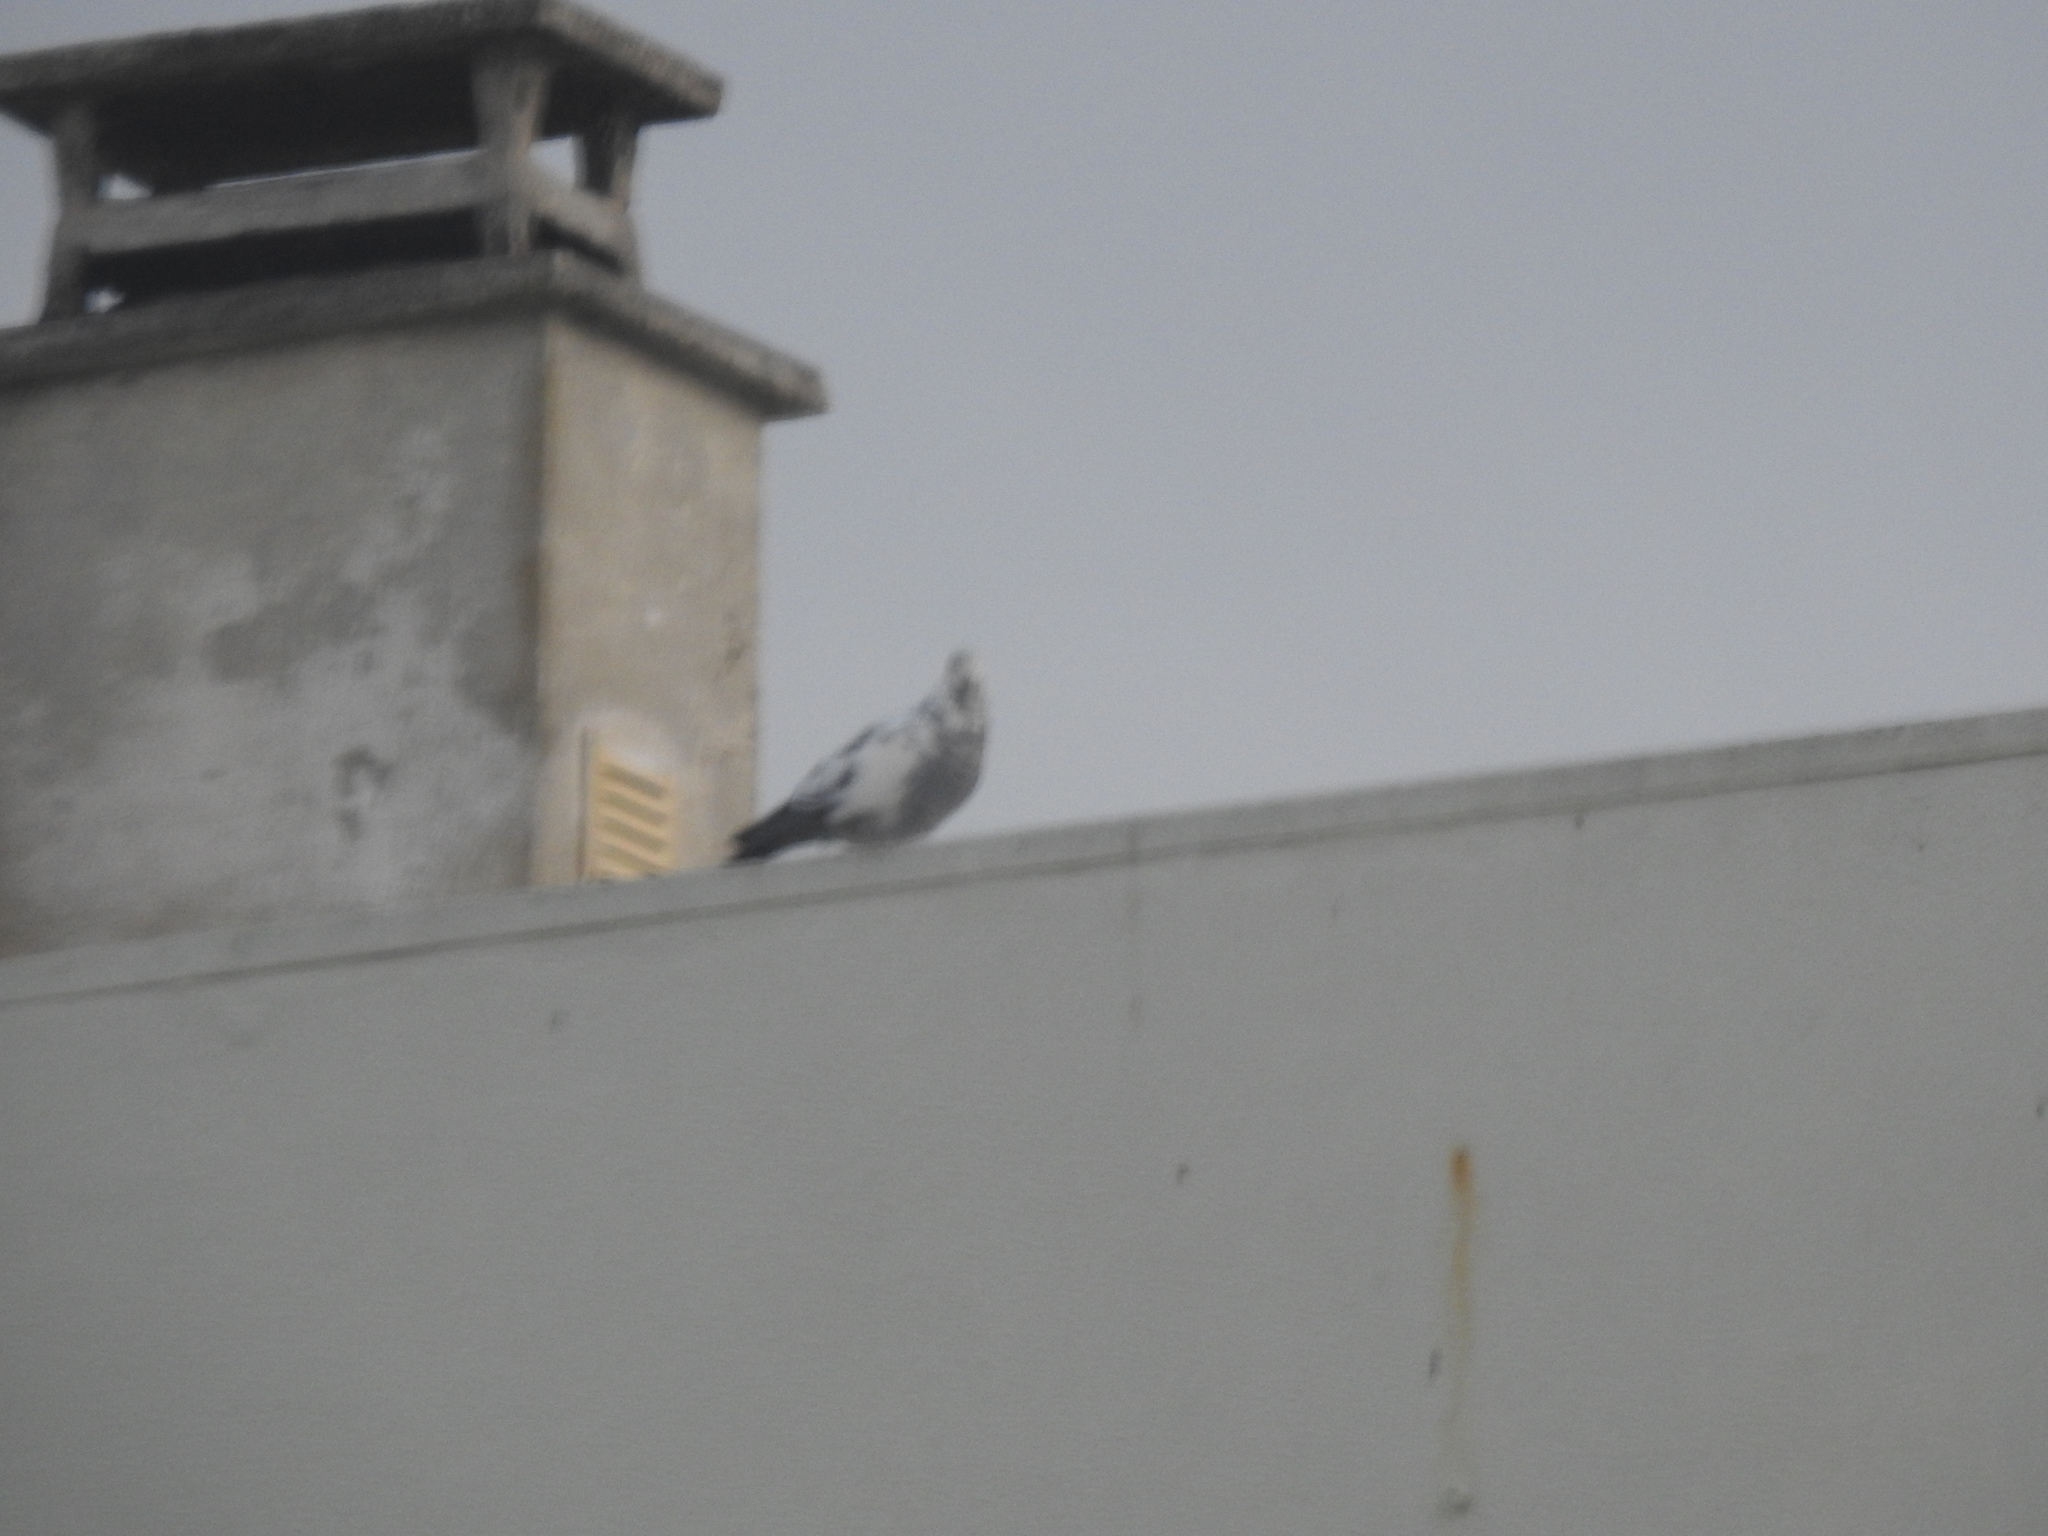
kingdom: Animalia
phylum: Chordata
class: Aves
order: Columbiformes
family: Columbidae
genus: Columba
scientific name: Columba livia
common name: Rock pigeon
